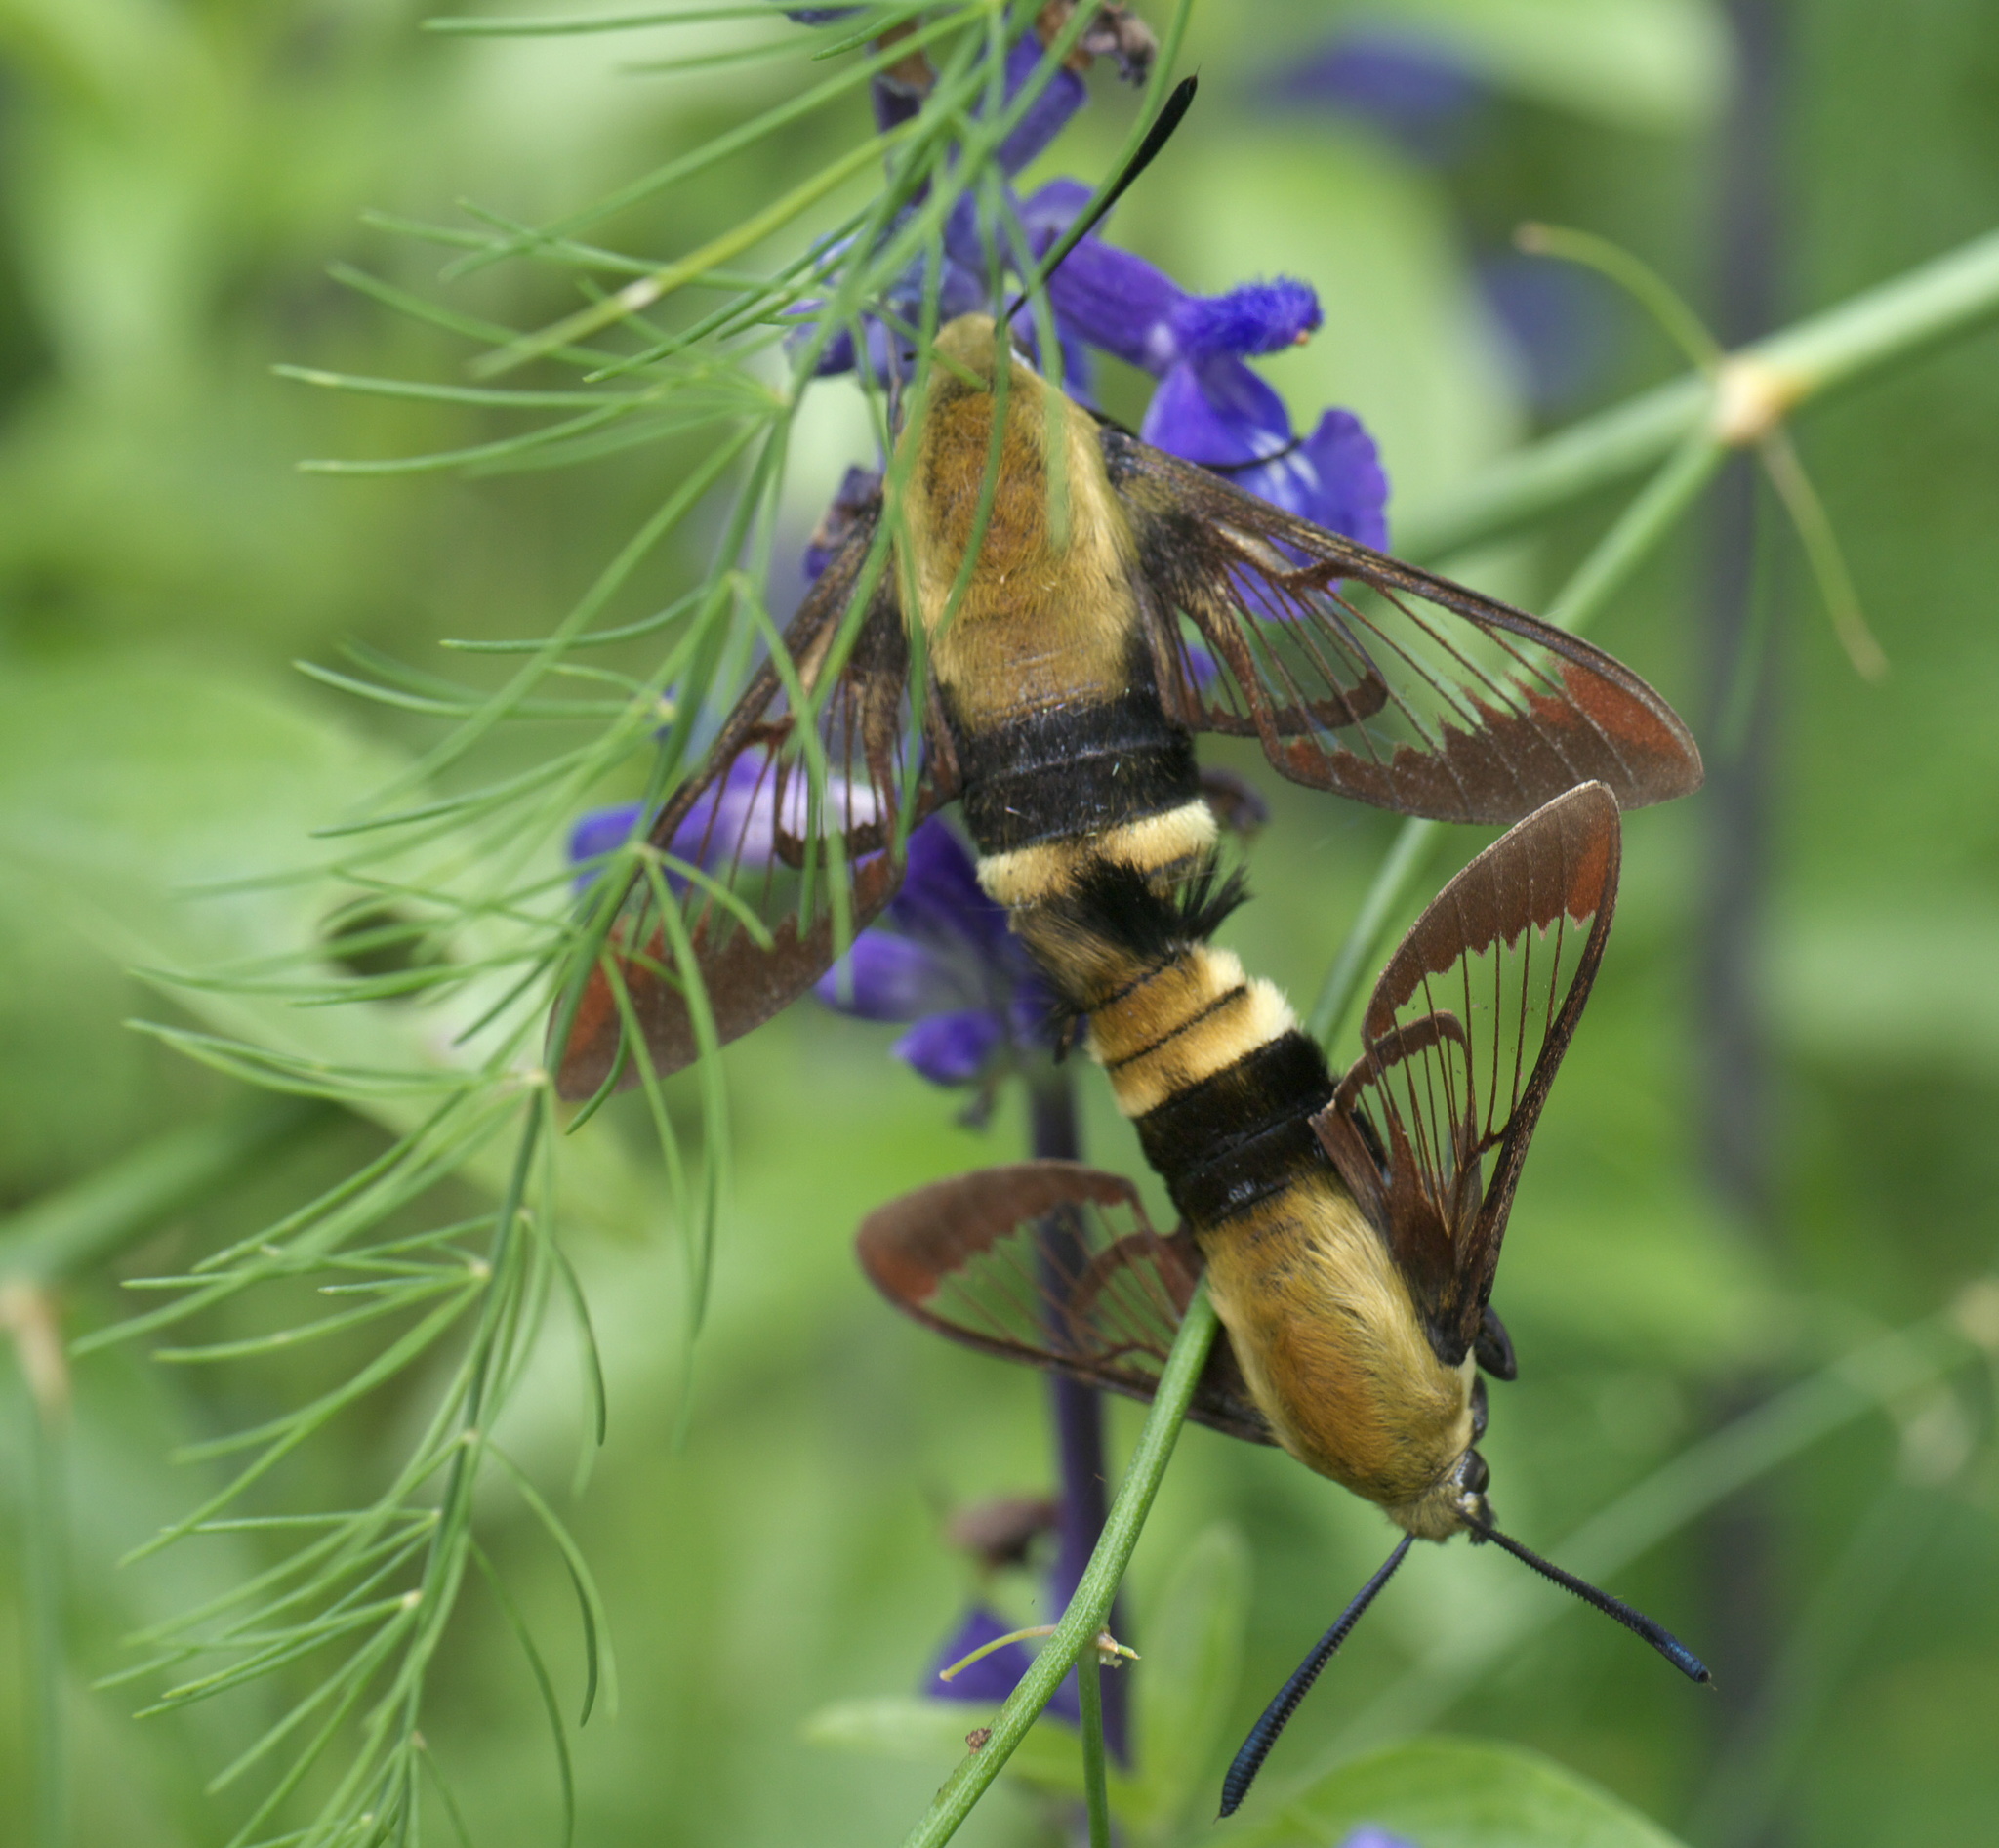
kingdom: Animalia
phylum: Arthropoda
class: Insecta
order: Lepidoptera
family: Sphingidae
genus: Hemaris
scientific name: Hemaris diffinis
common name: Bumblebee moth
